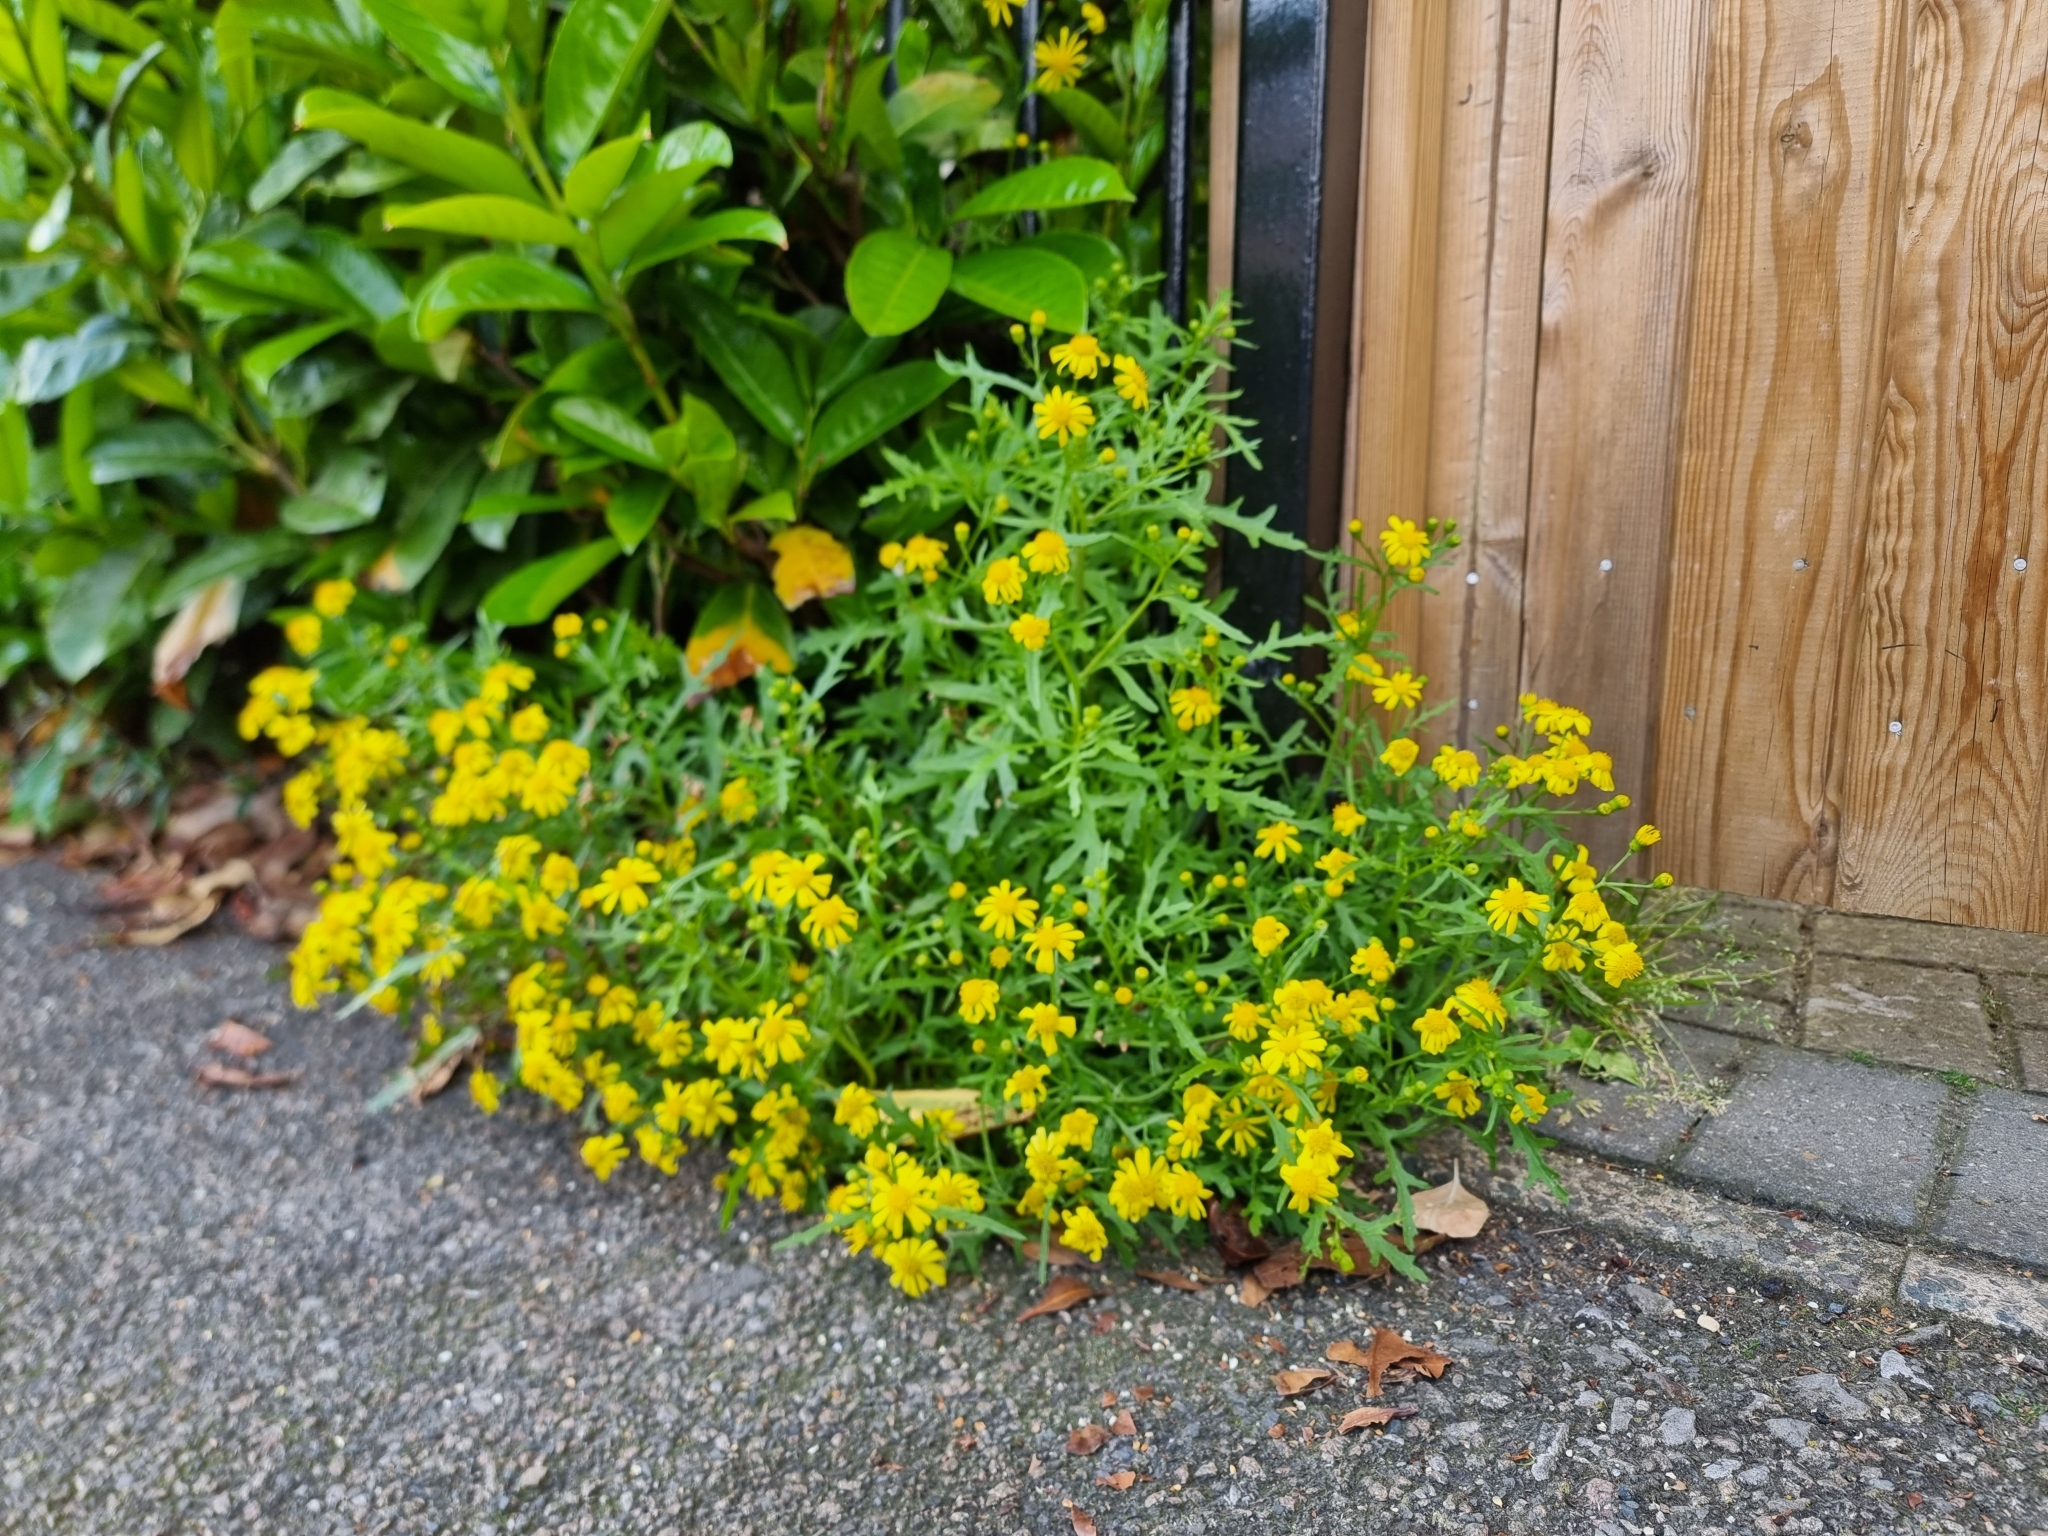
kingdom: Plantae
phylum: Tracheophyta
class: Magnoliopsida
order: Asterales
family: Asteraceae
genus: Senecio
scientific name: Senecio squalidus
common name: Oxford ragwort
